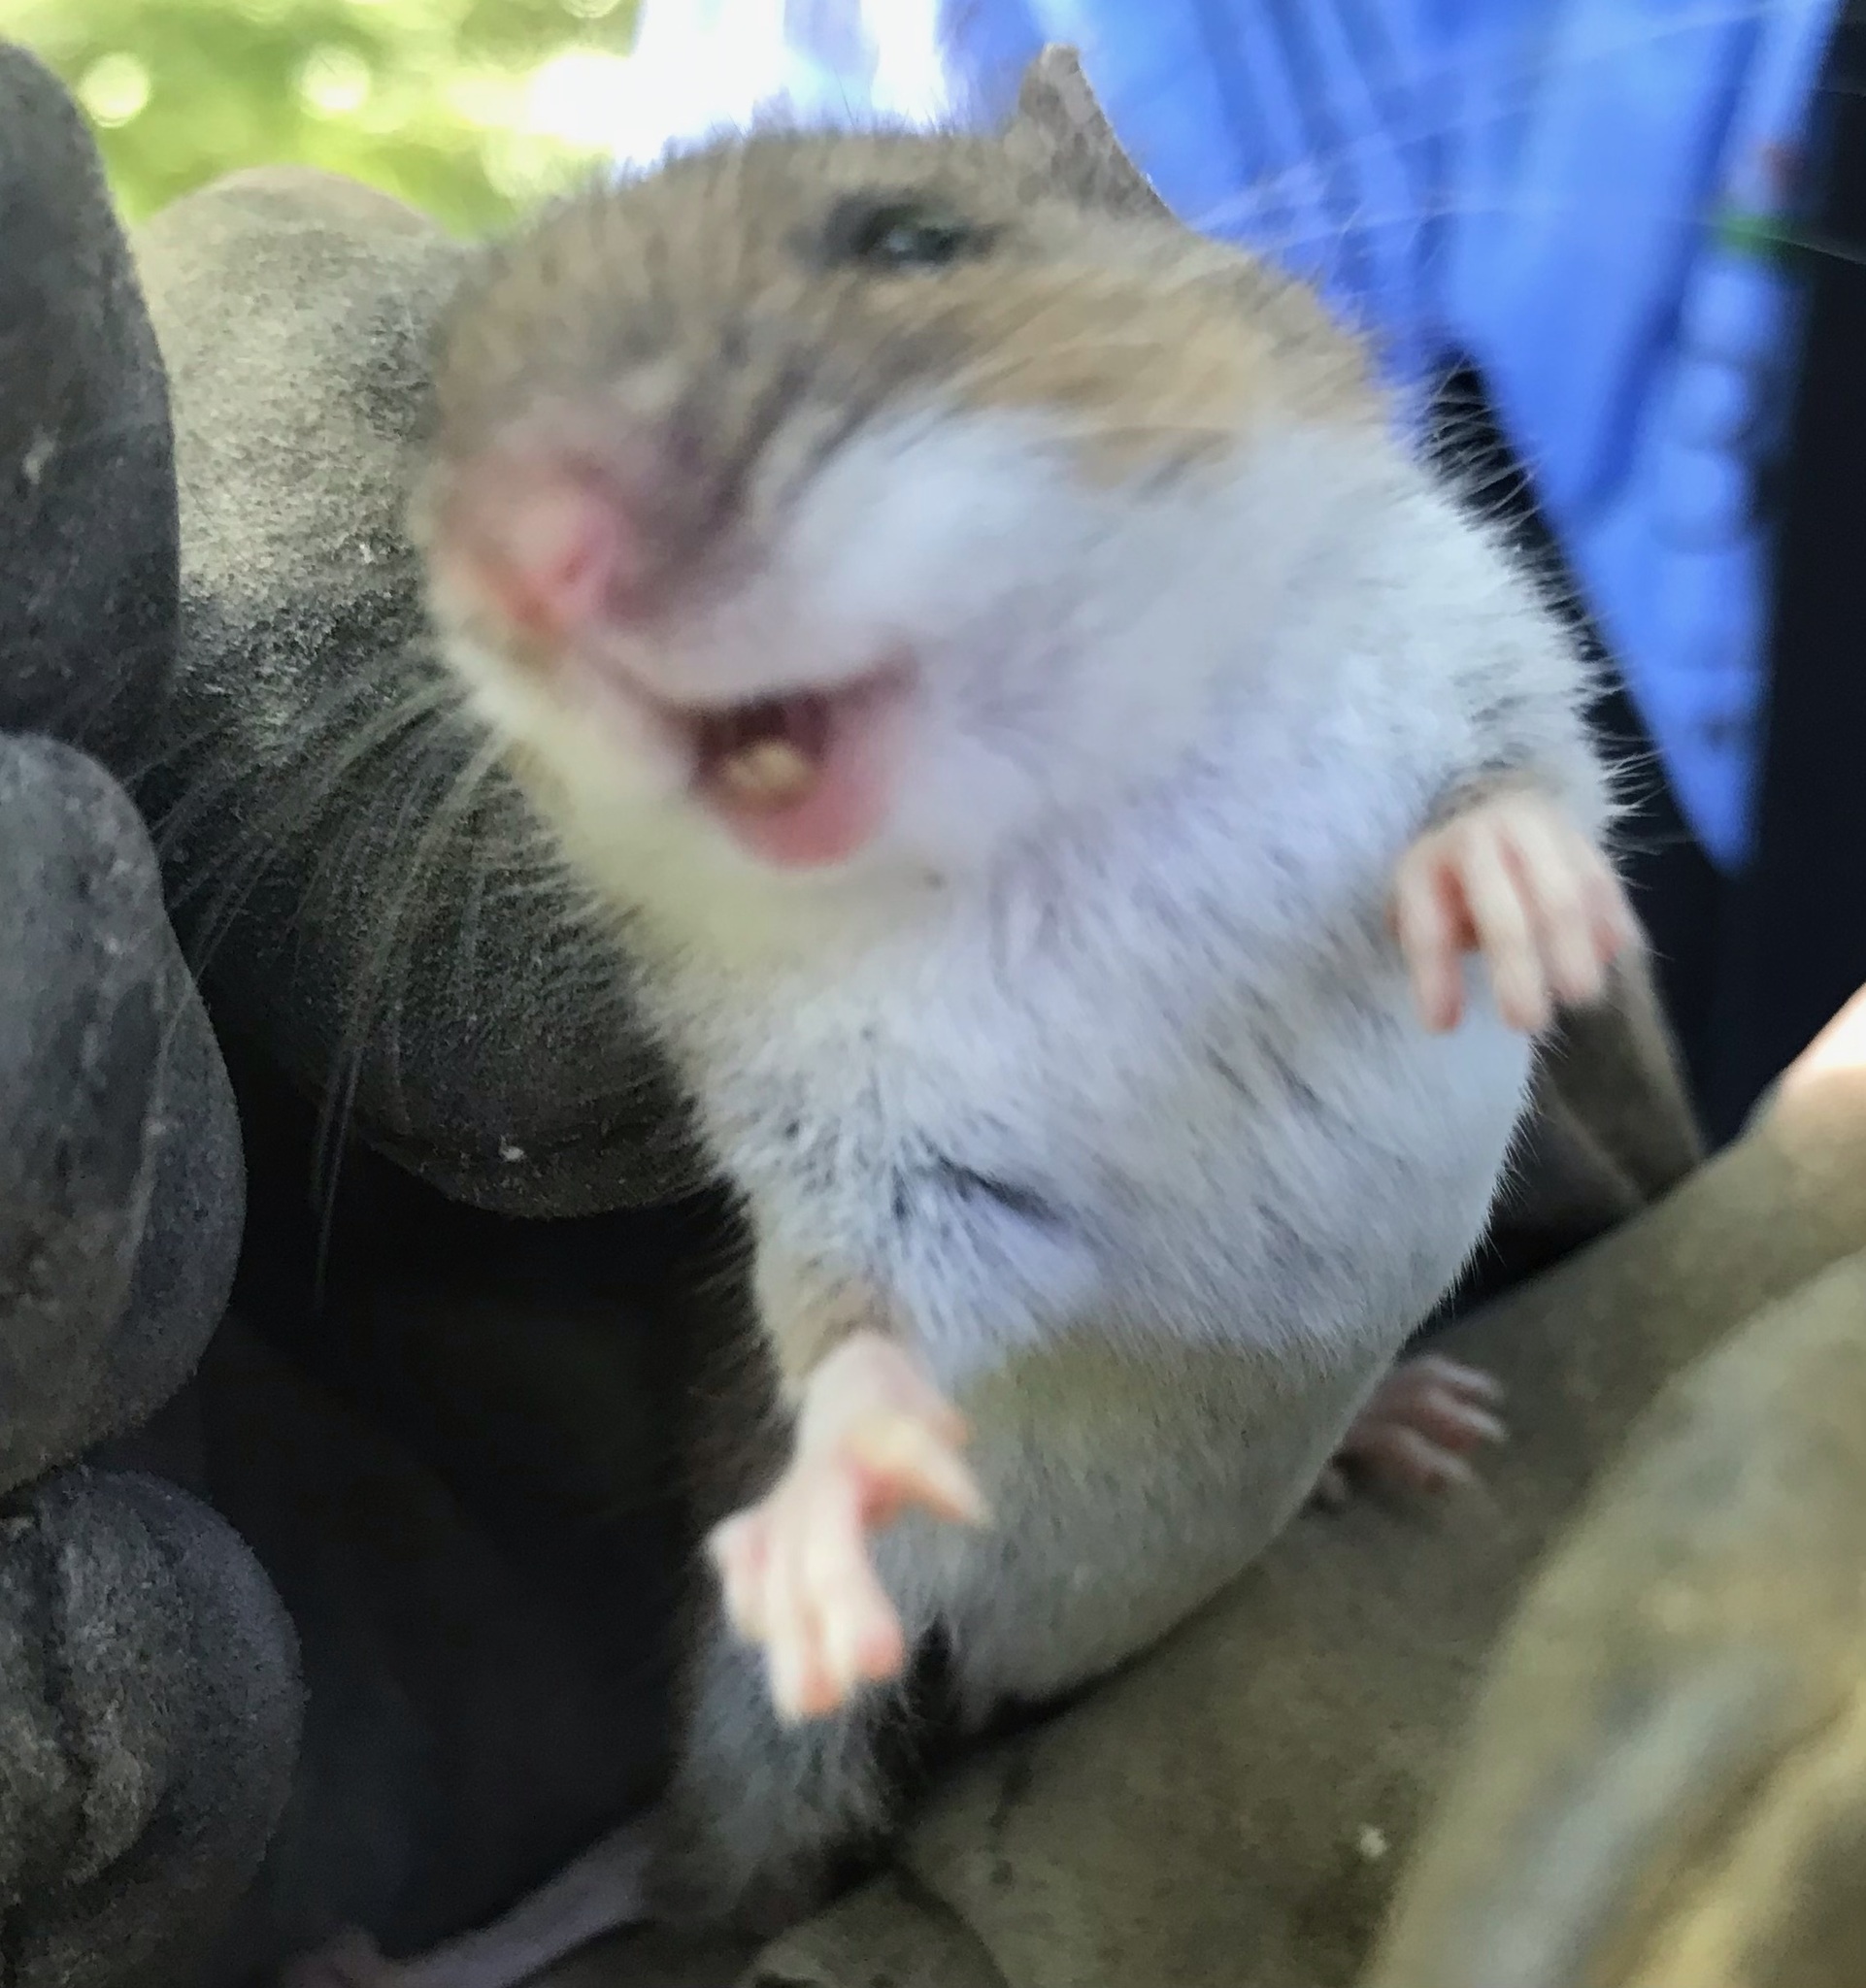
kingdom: Animalia
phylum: Chordata
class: Mammalia
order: Rodentia
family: Cricetidae
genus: Peromyscus
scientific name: Peromyscus leucopus
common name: White-footed deermouse
